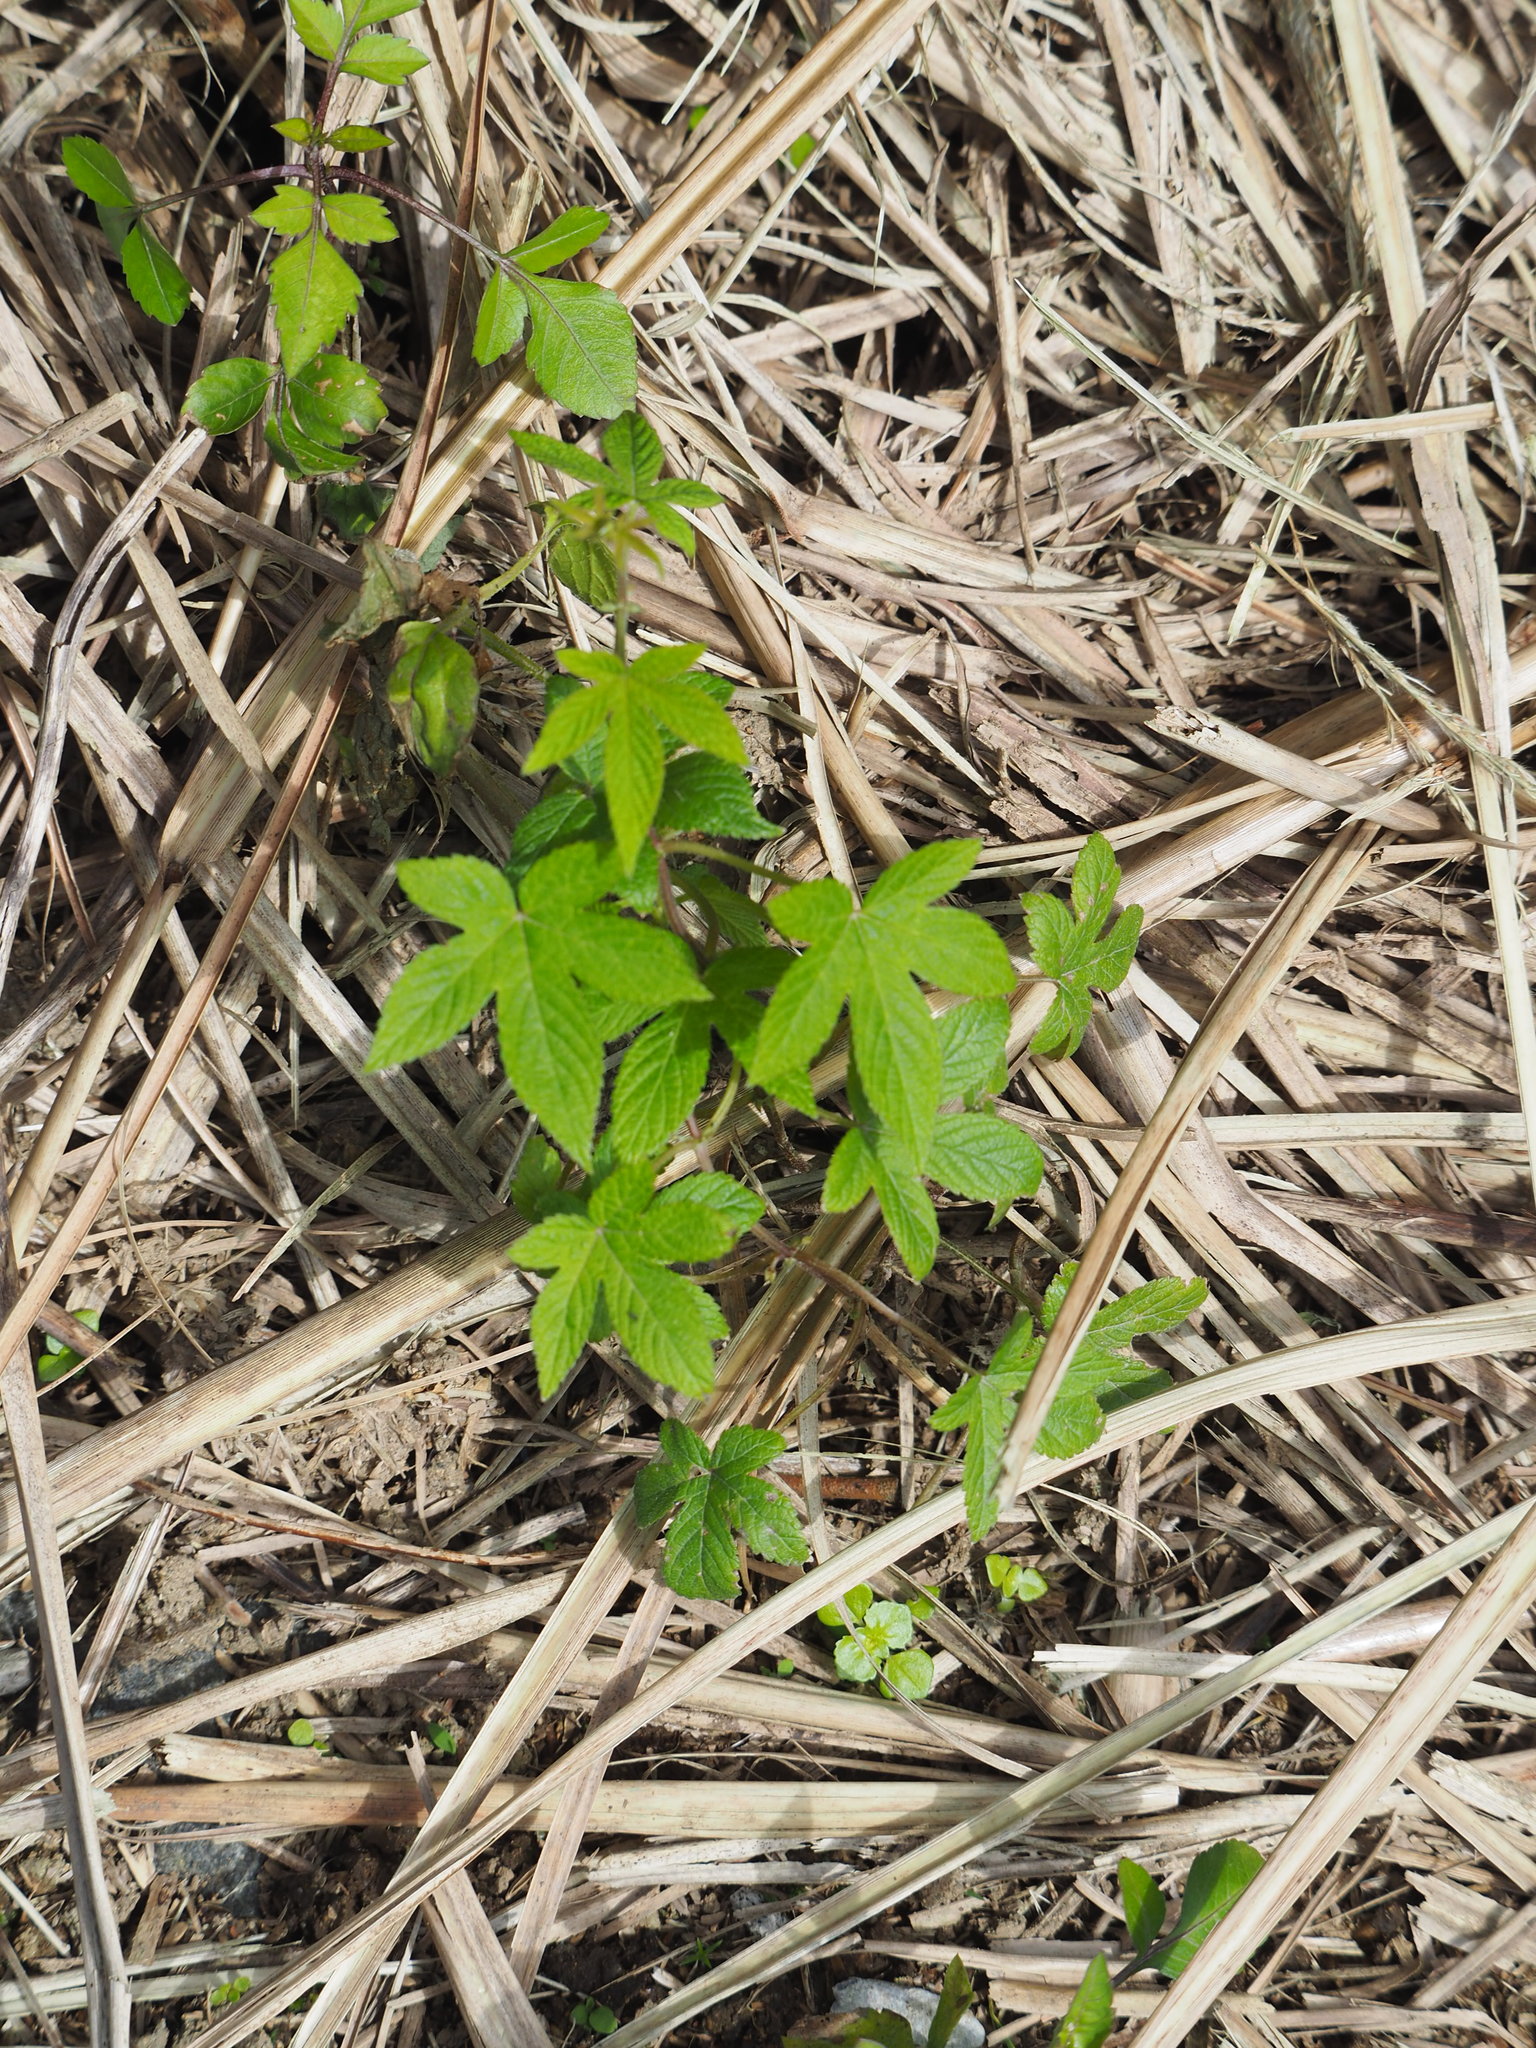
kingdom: Plantae
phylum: Tracheophyta
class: Magnoliopsida
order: Rosales
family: Cannabaceae
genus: Humulus
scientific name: Humulus scandens
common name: Japanese hop
